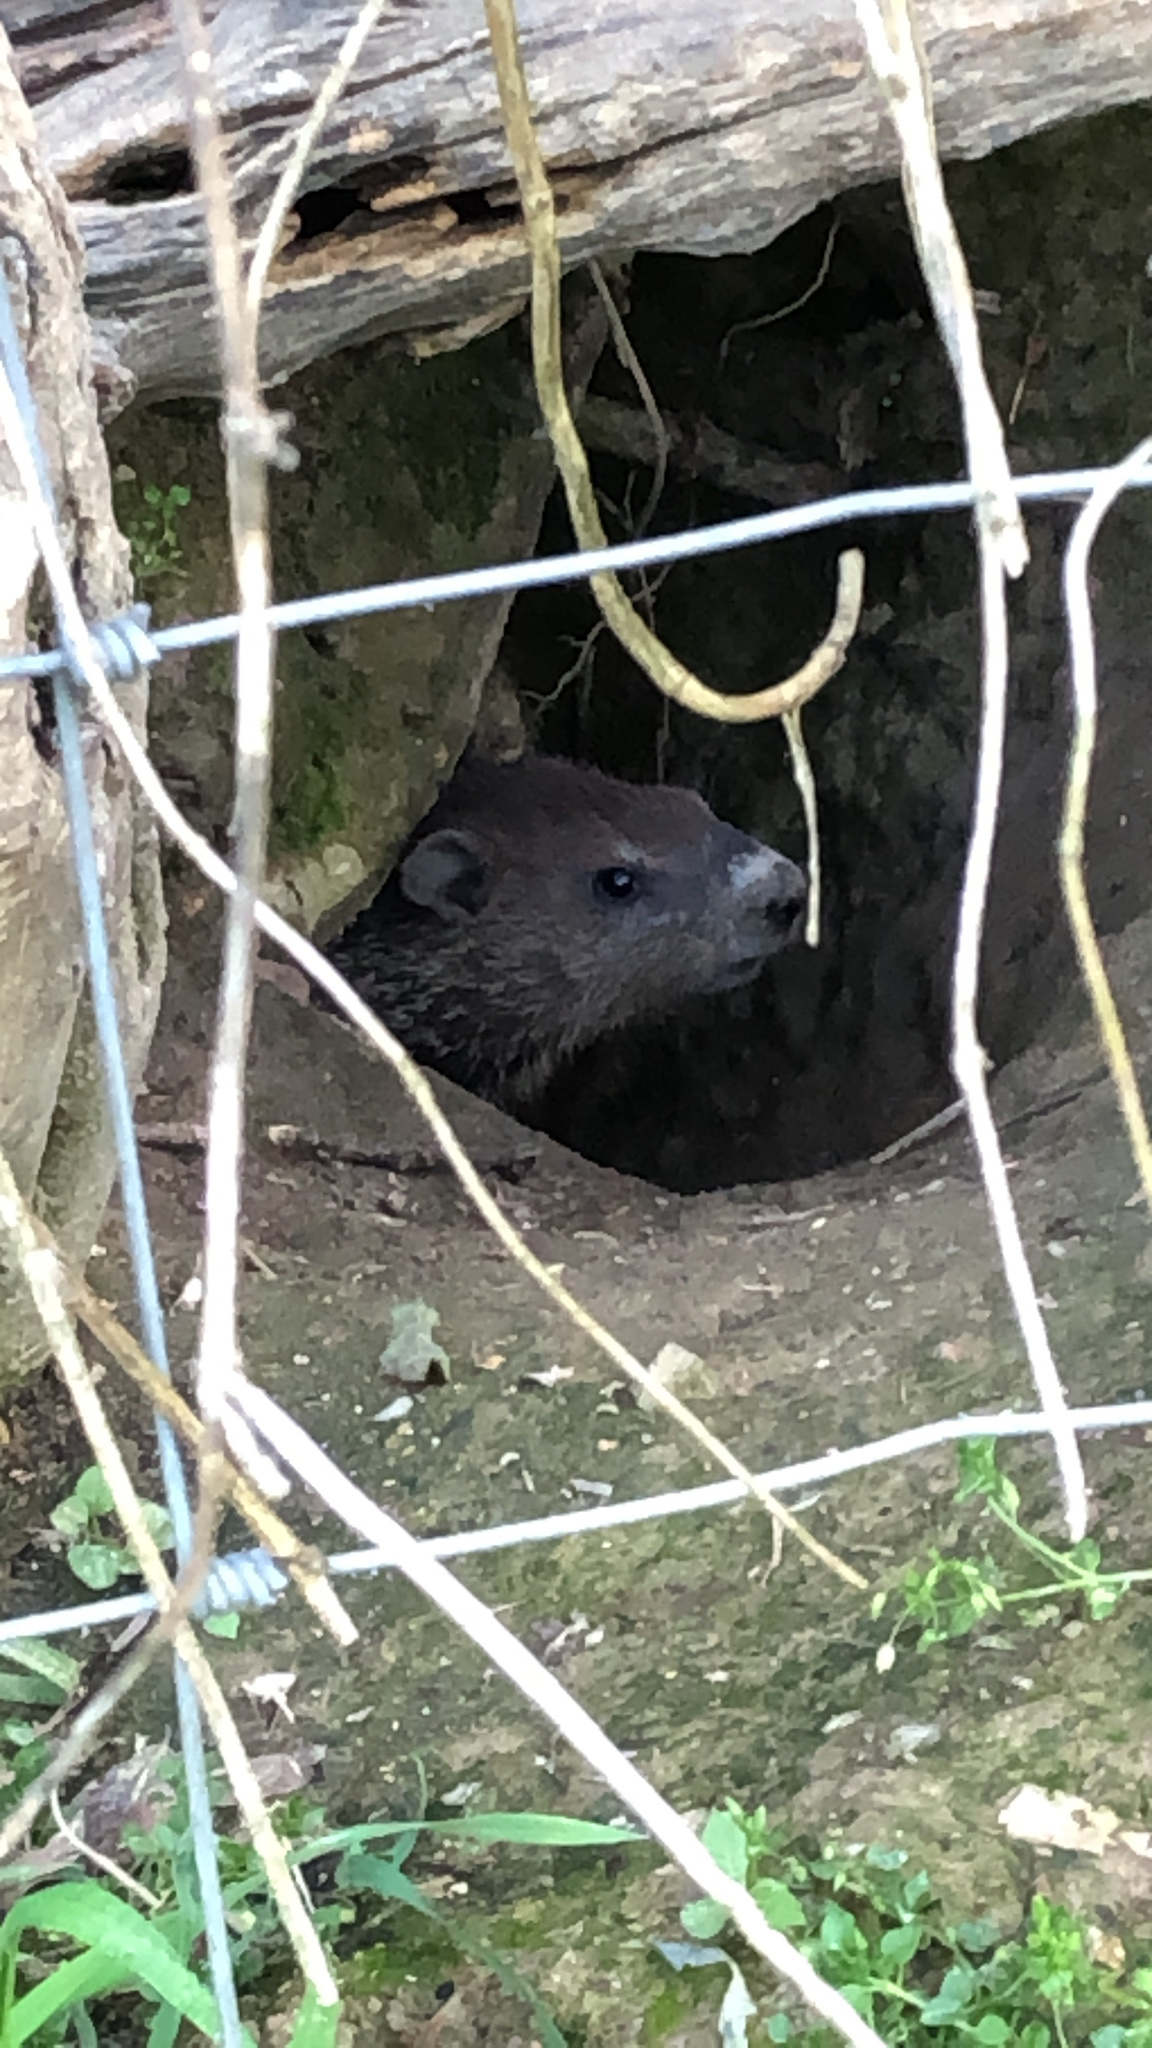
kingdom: Animalia
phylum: Chordata
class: Mammalia
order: Rodentia
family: Sciuridae
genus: Marmota
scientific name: Marmota monax
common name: Groundhog
